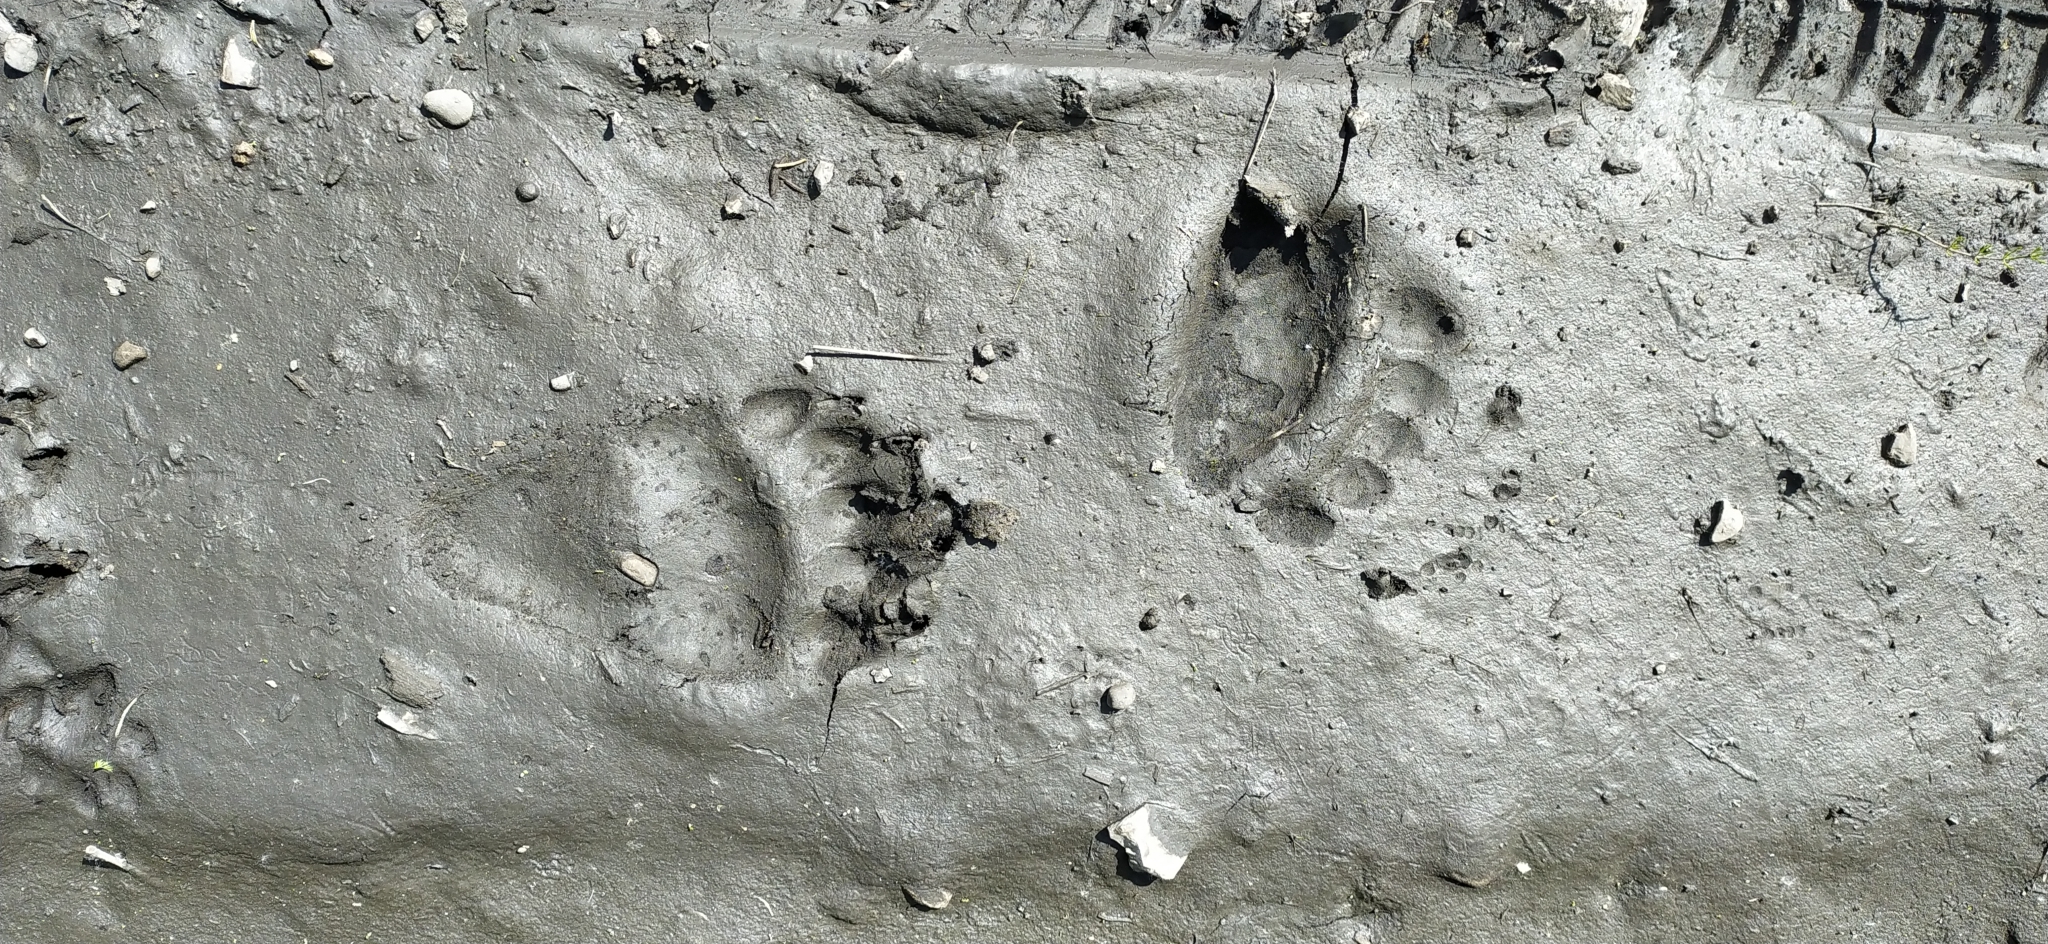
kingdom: Animalia
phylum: Chordata
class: Mammalia
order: Carnivora
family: Ursidae
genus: Ursus
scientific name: Ursus arctos
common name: Brown bear
